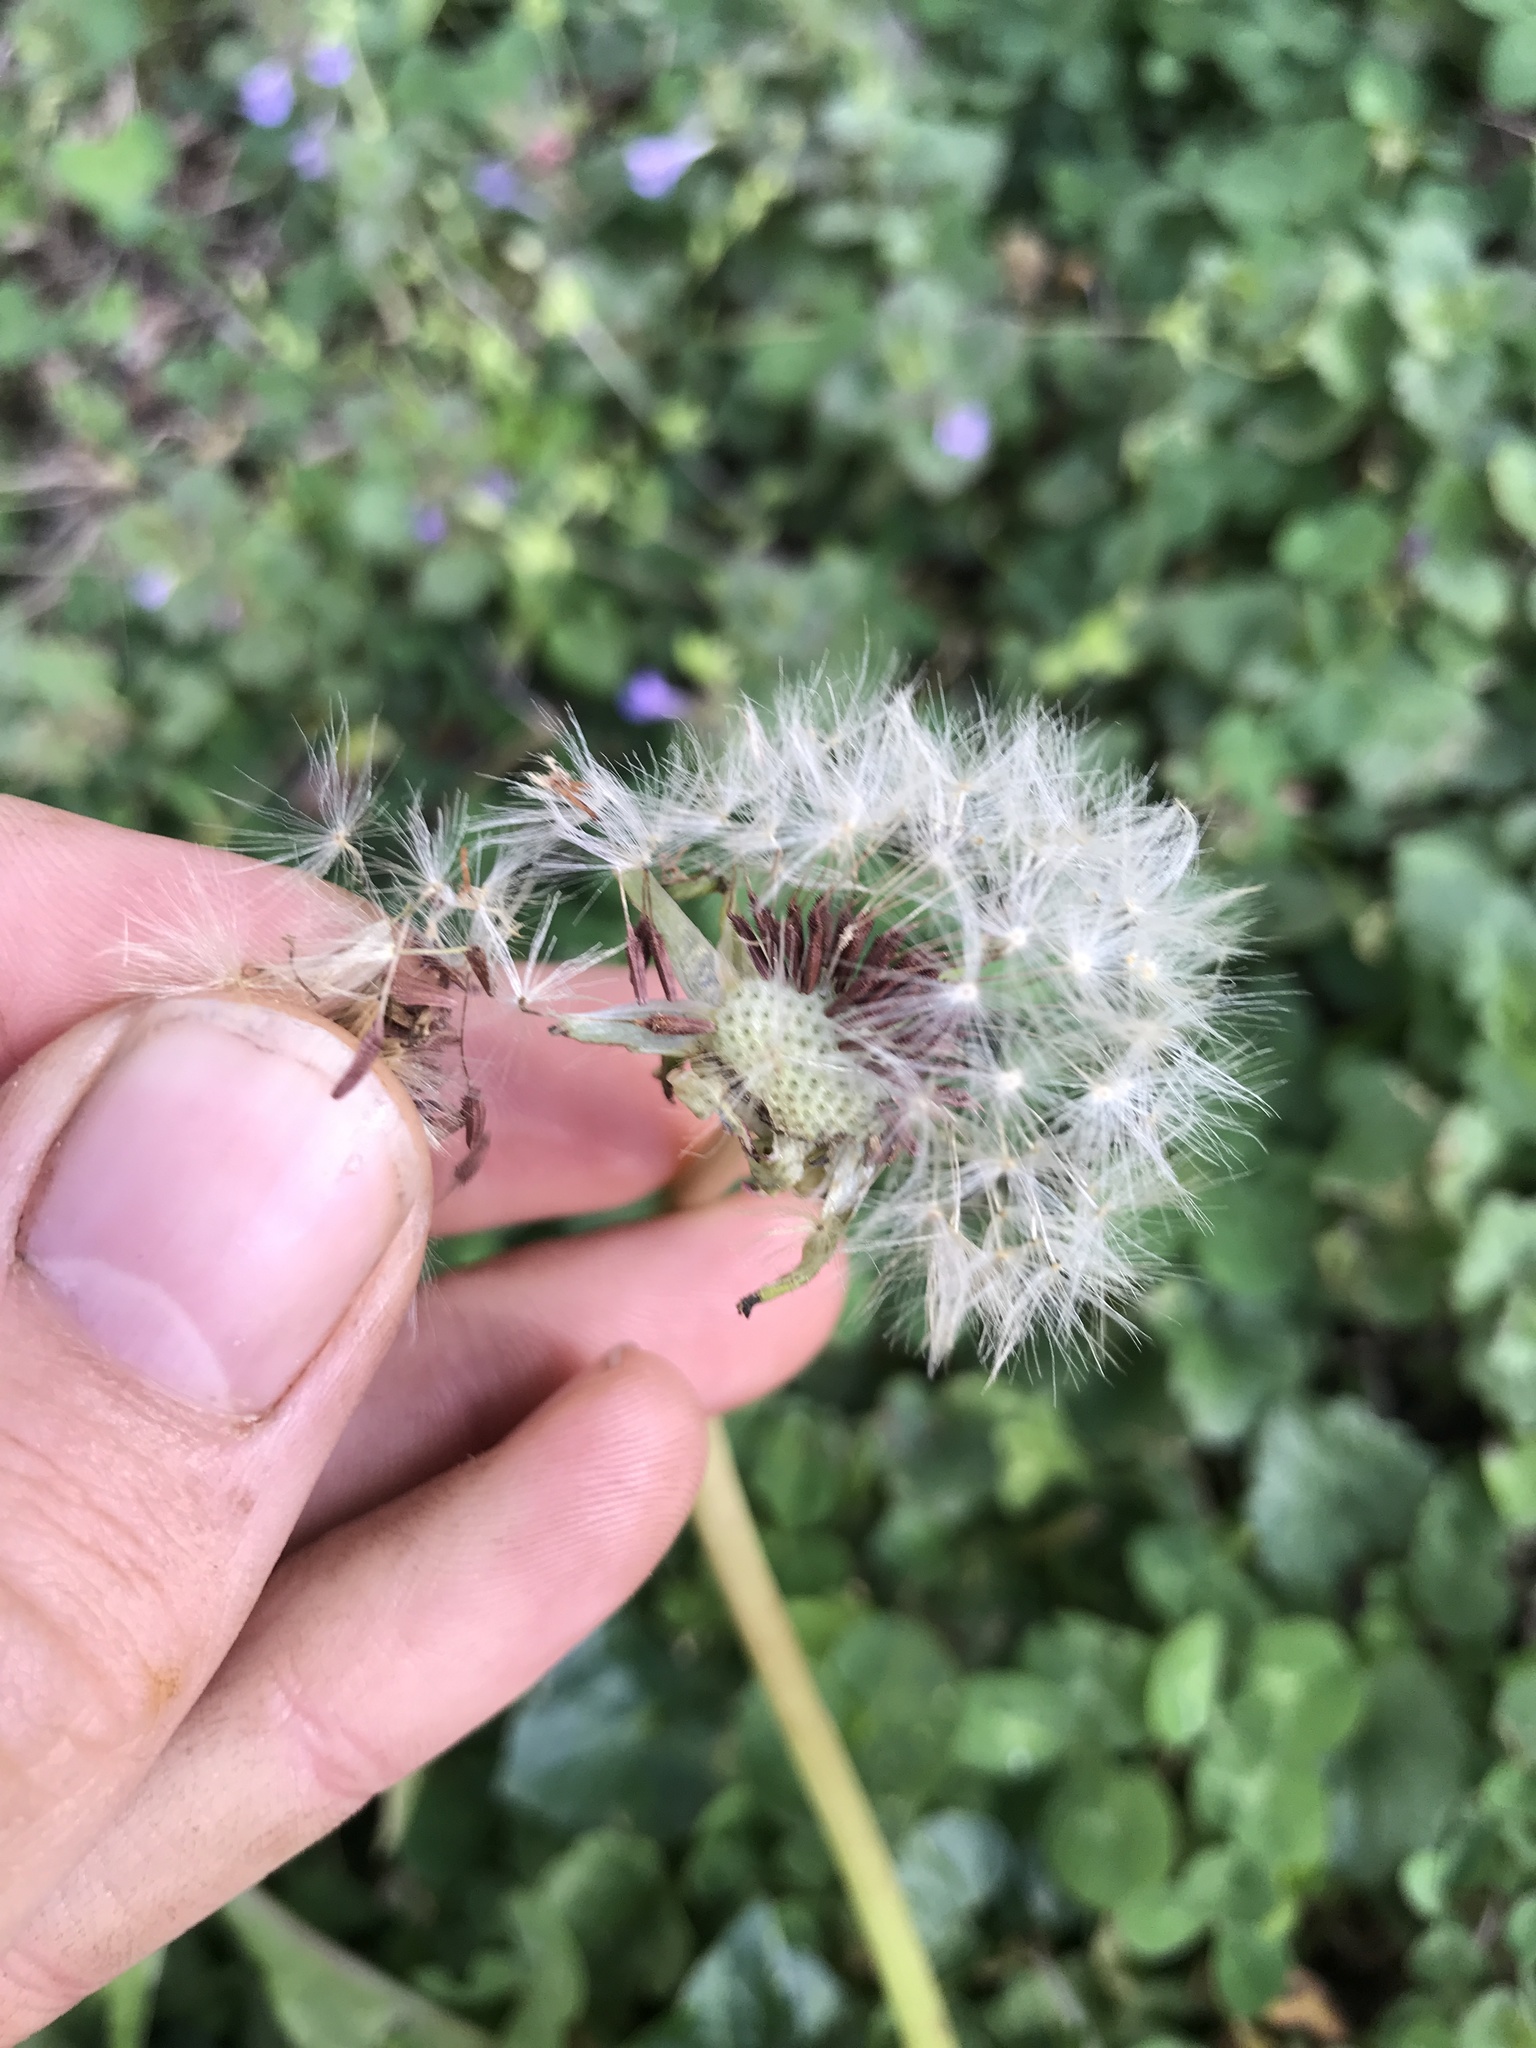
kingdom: Plantae
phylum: Tracheophyta
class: Magnoliopsida
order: Asterales
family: Asteraceae
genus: Taraxacum
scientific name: Taraxacum erythrospermum
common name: Rock dandelion
